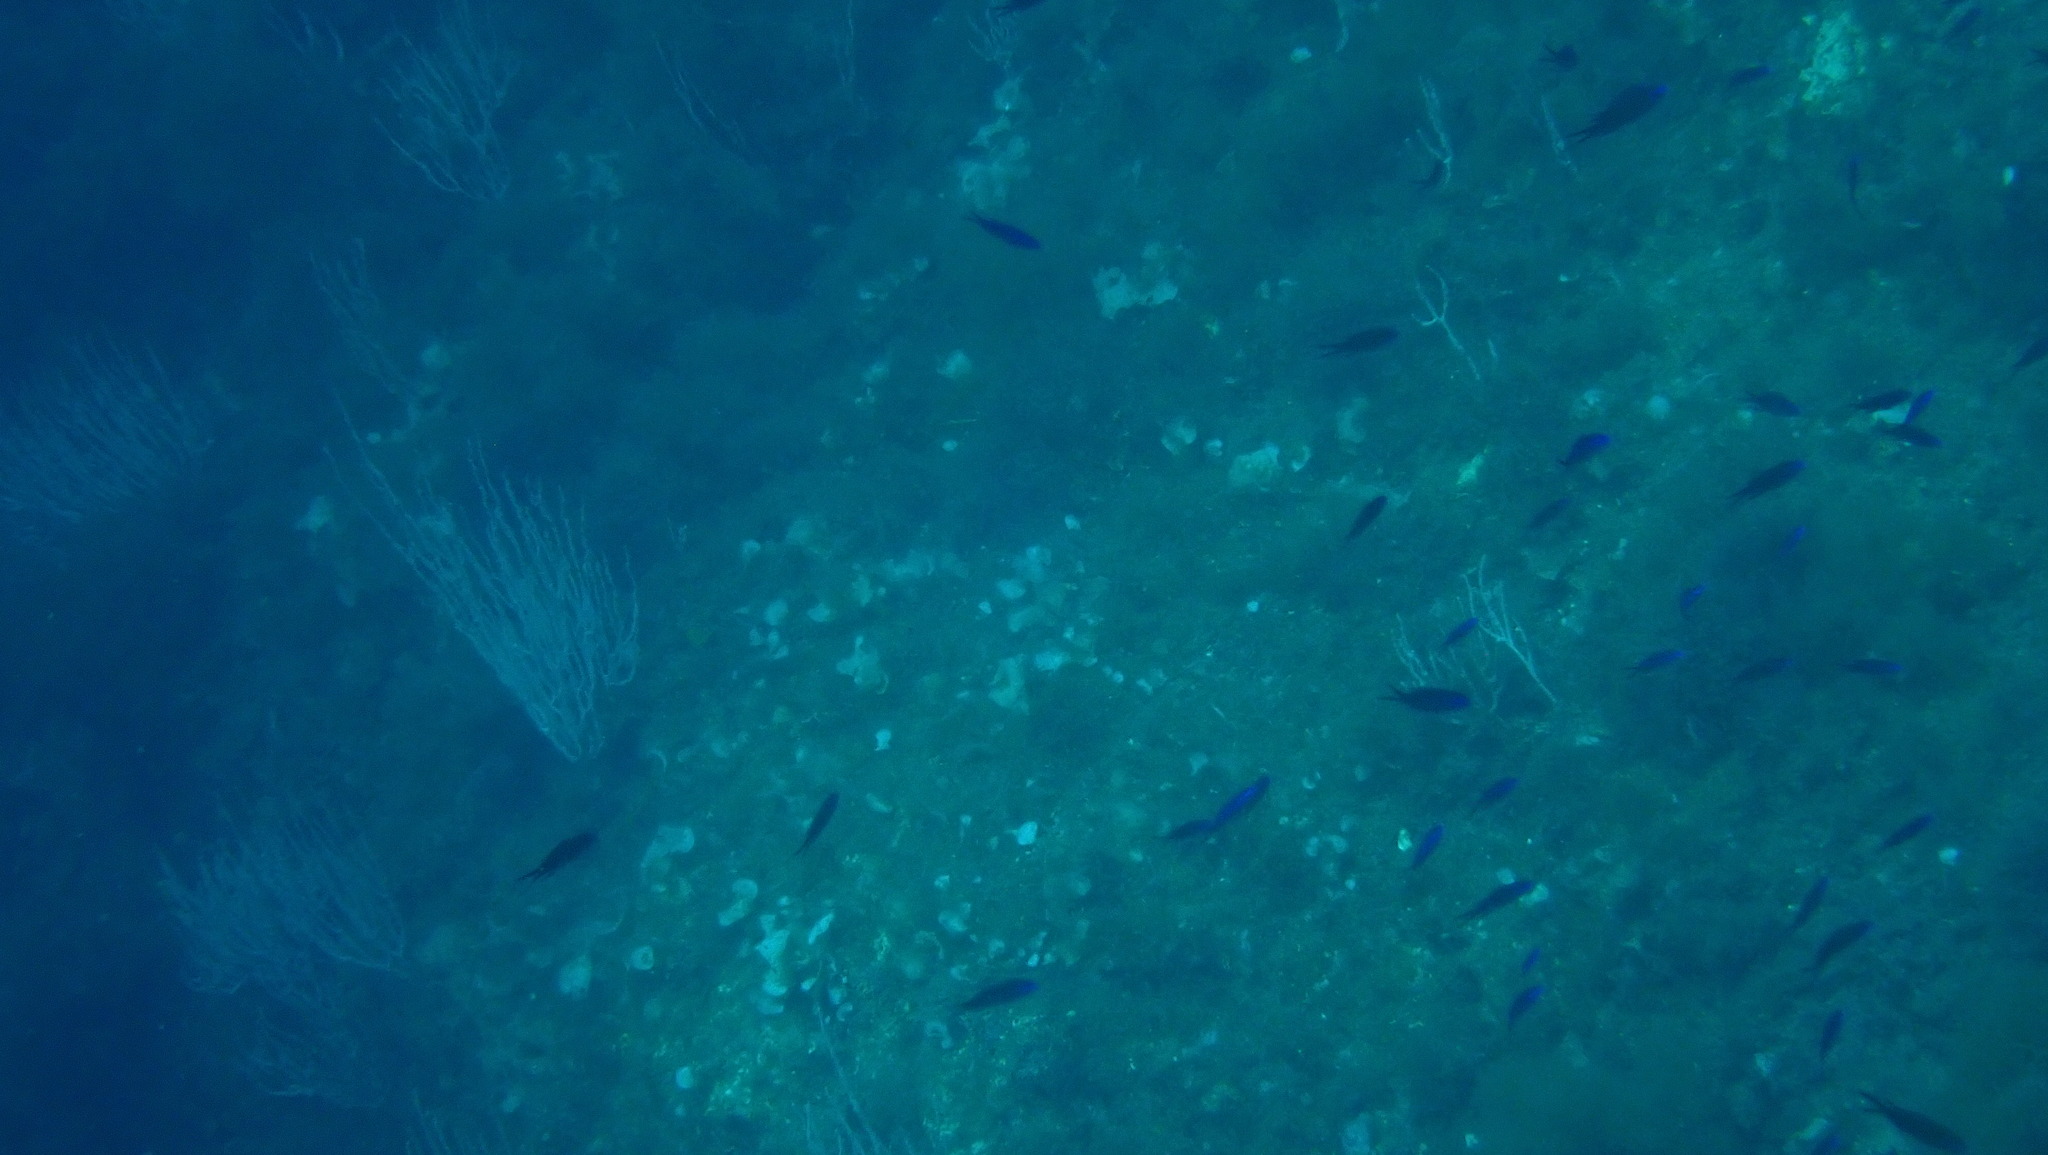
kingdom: Animalia
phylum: Chordata
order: Perciformes
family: Pomacentridae
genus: Chromis
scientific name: Chromis chromis
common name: Damselfish
